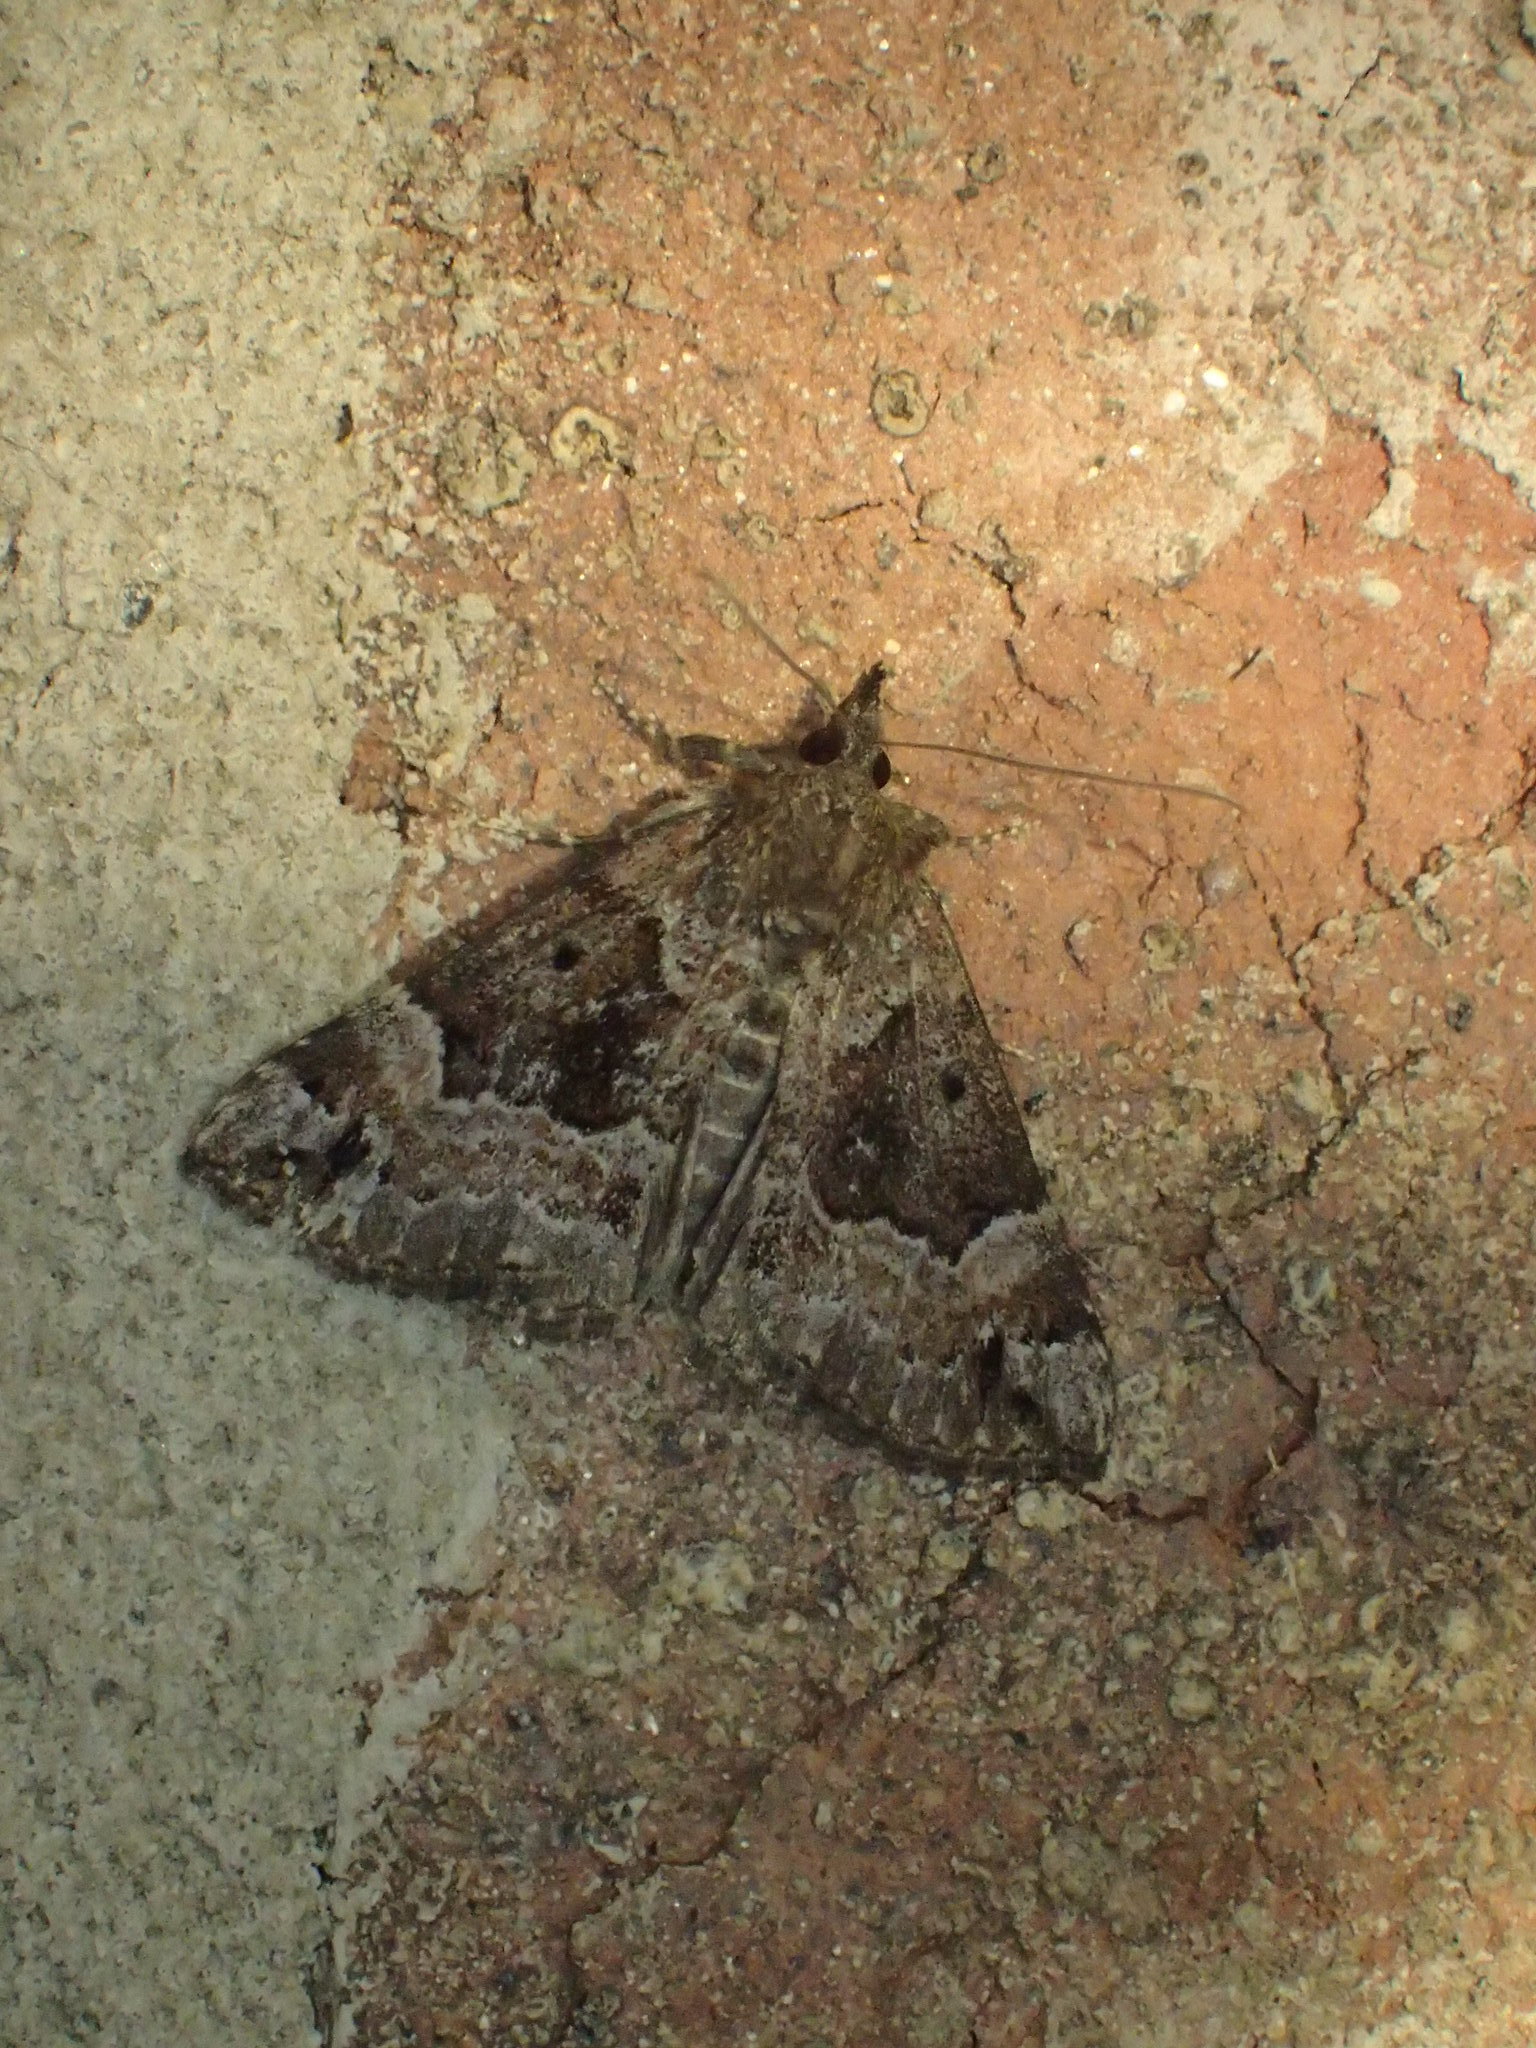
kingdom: Animalia
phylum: Arthropoda
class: Insecta
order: Lepidoptera
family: Erebidae
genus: Hypena
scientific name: Hypena palparia
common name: Mottled bomolocha moth
